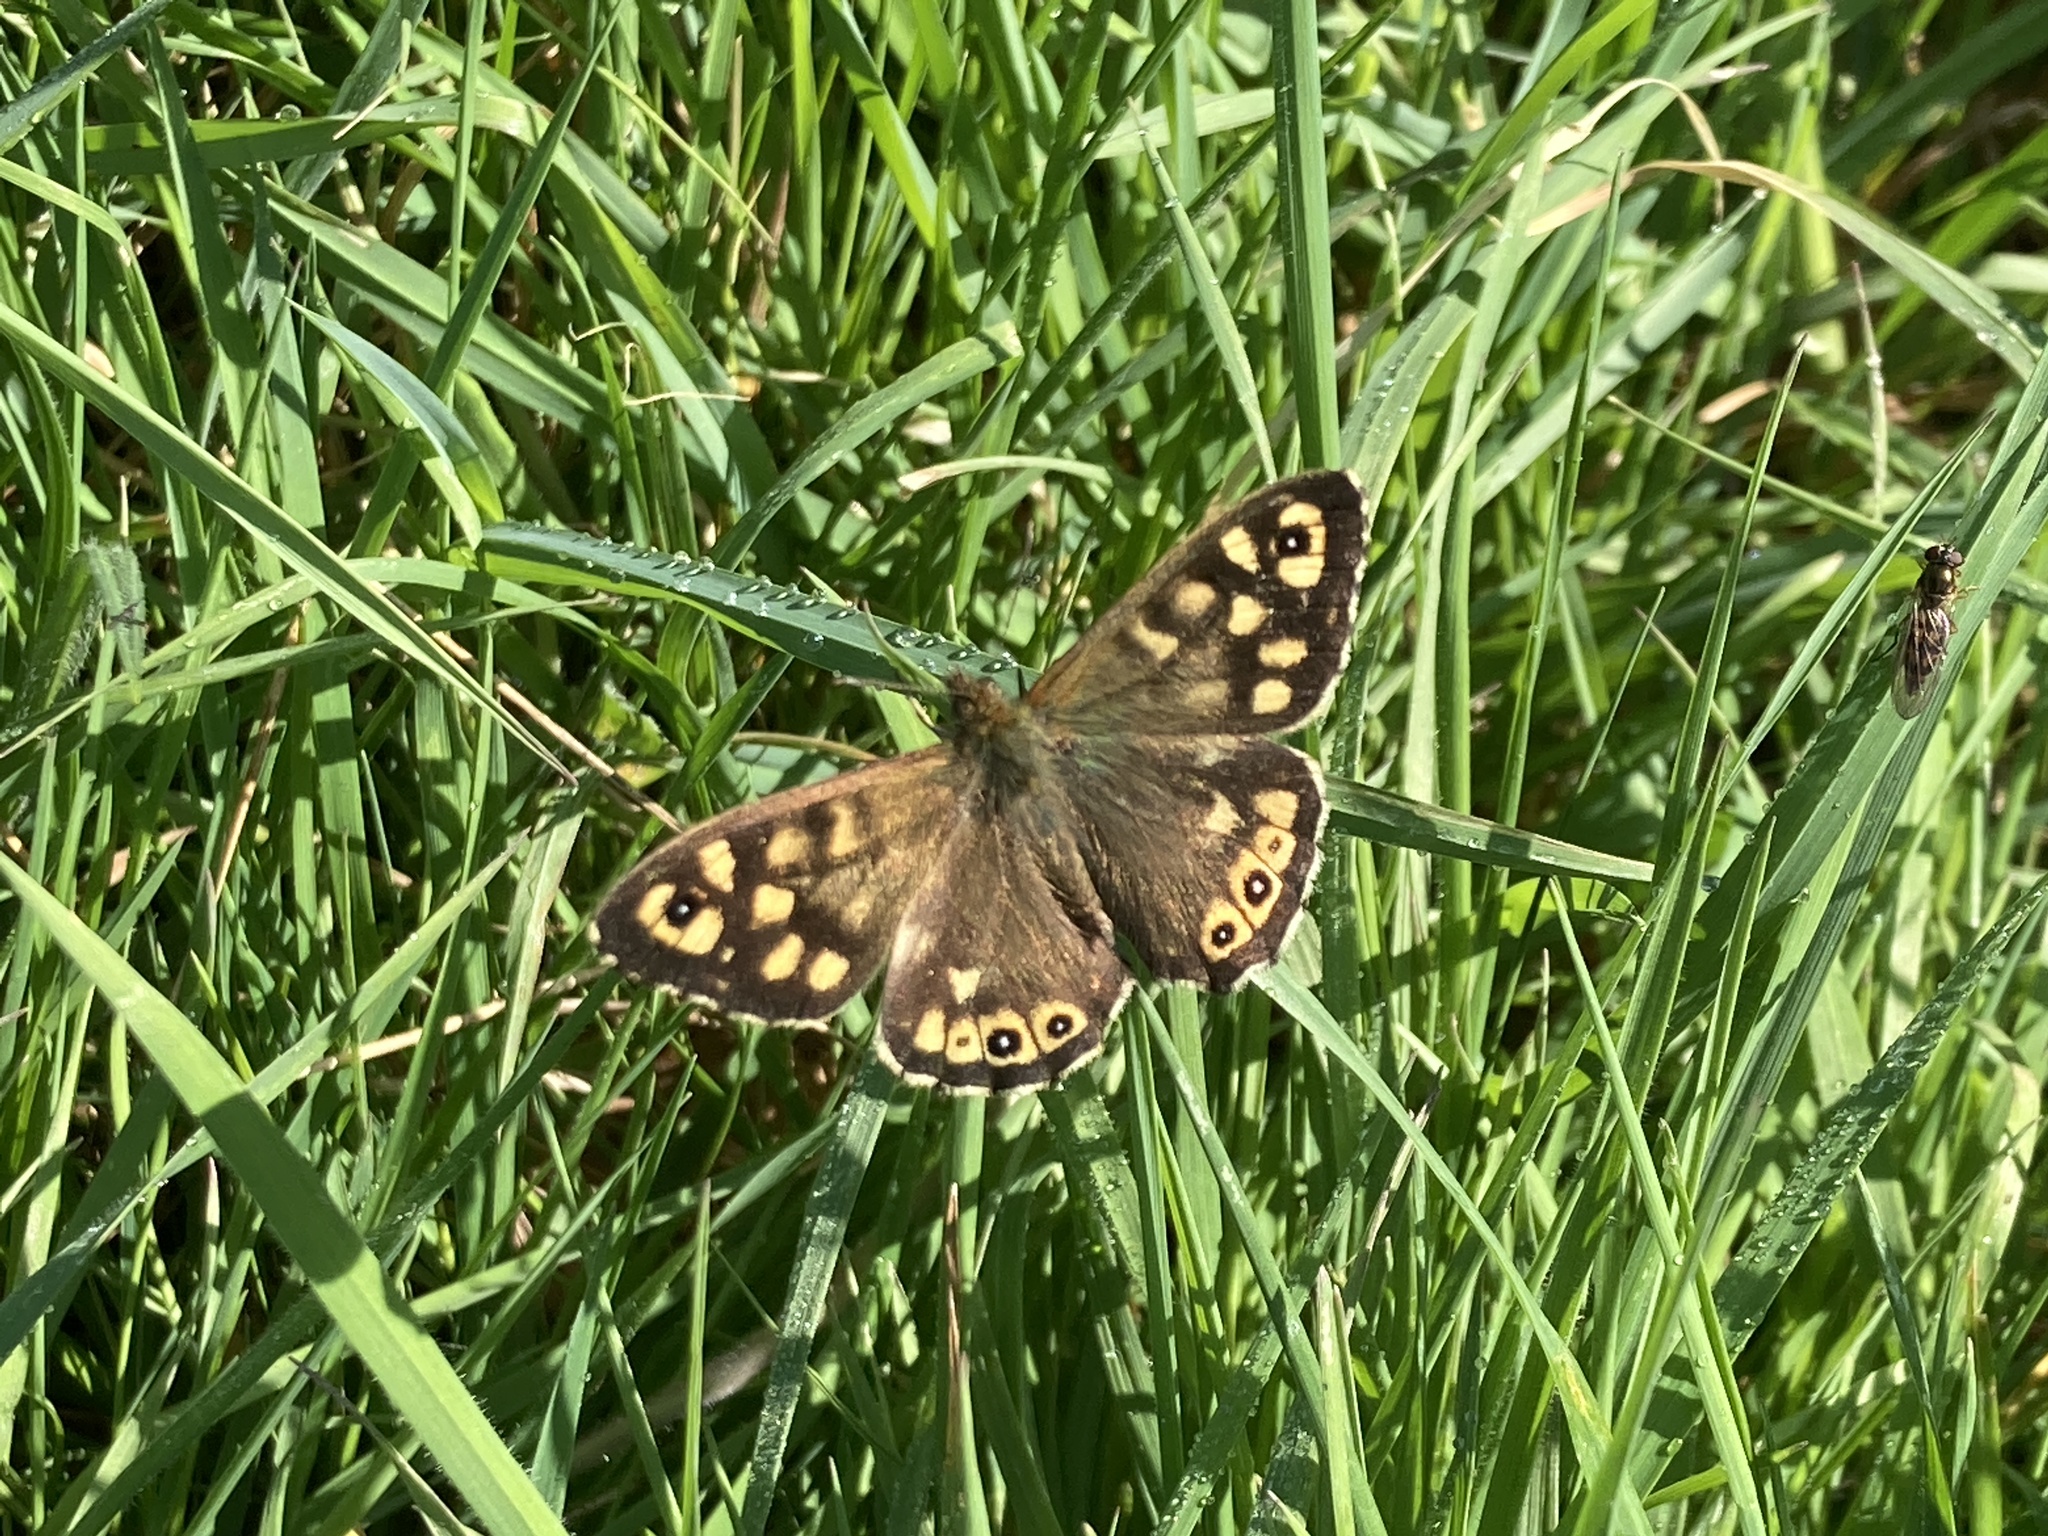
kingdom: Animalia
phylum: Arthropoda
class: Insecta
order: Lepidoptera
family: Nymphalidae
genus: Pararge
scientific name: Pararge aegeria
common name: Speckled wood
